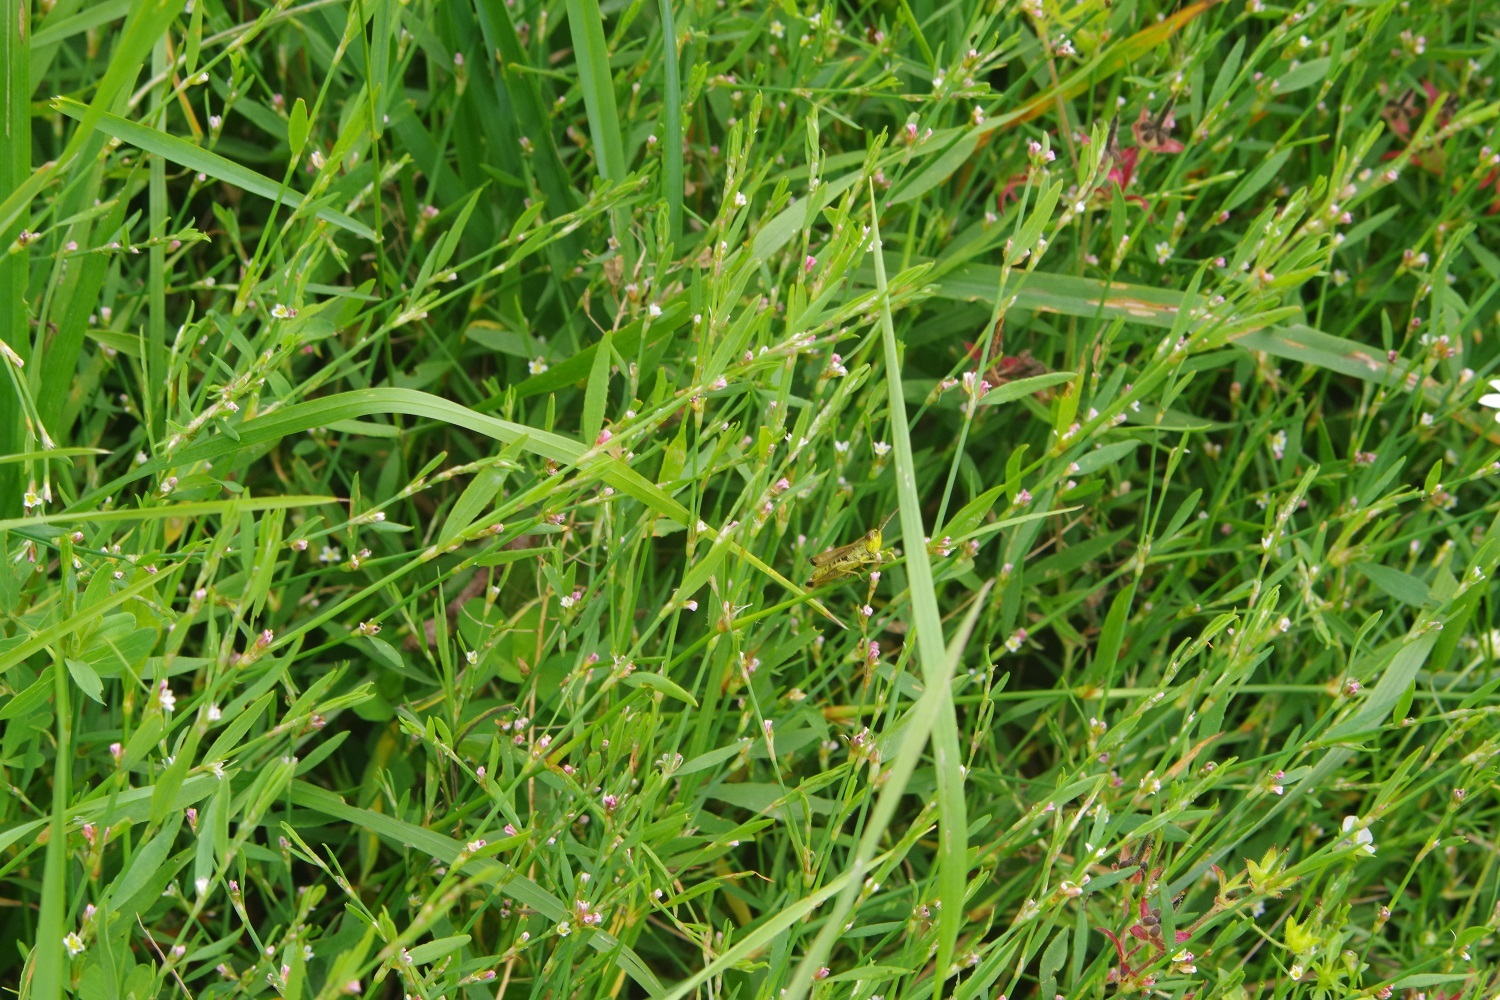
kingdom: Plantae
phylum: Tracheophyta
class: Magnoliopsida
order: Caryophyllales
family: Polygonaceae
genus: Polygonum
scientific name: Polygonum aviculare
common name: Prostrate knotweed
